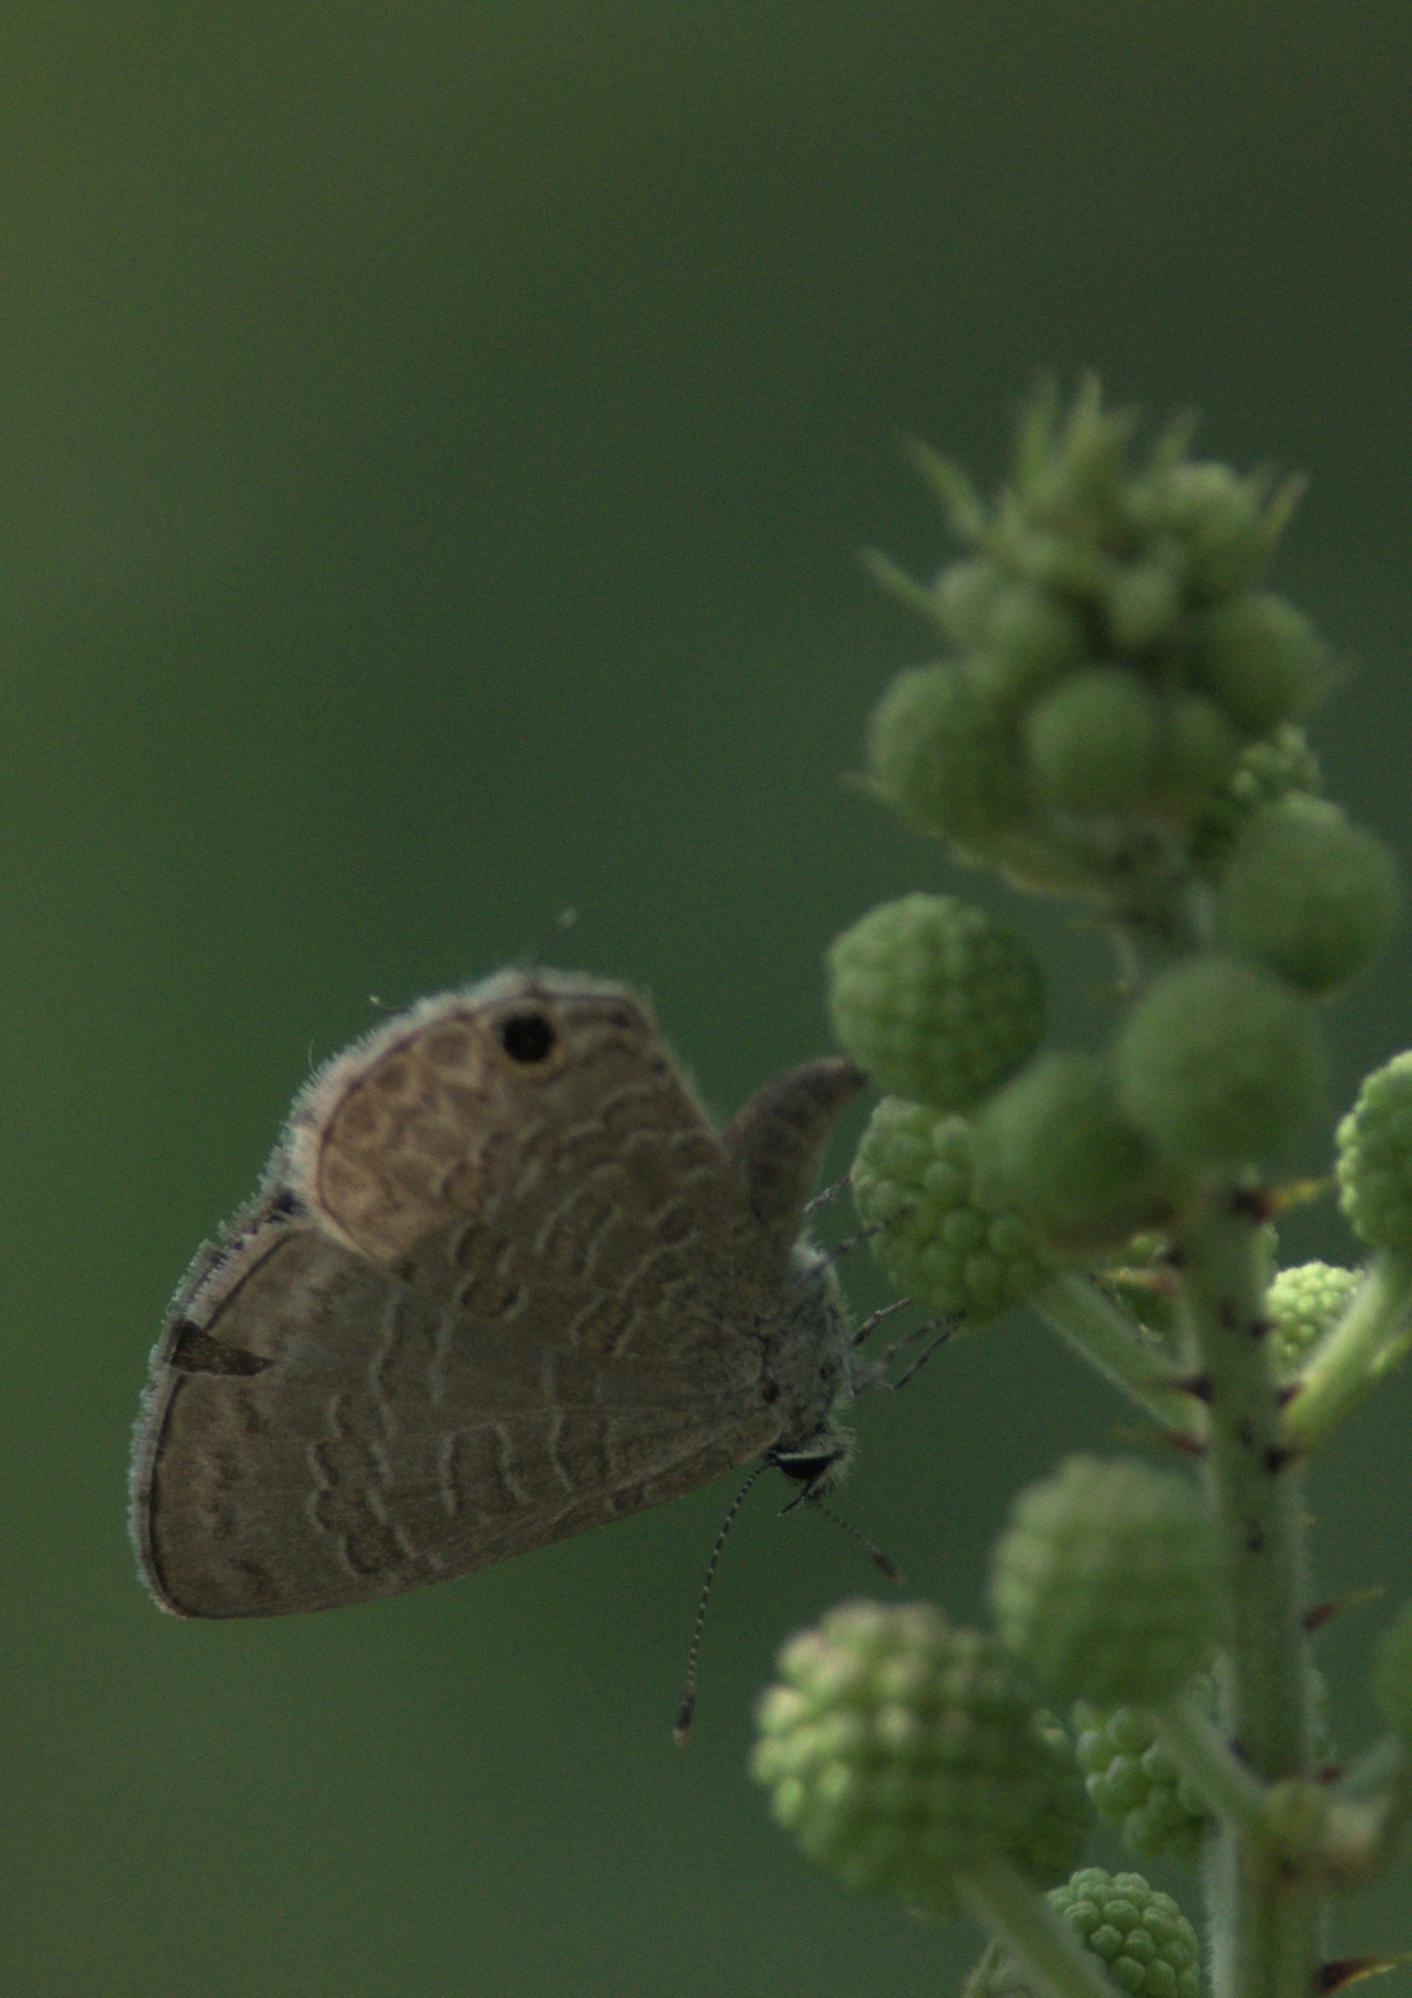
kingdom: Animalia
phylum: Arthropoda
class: Insecta
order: Lepidoptera
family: Lycaenidae
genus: Prosotas
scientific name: Prosotas nora
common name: Common line blue
